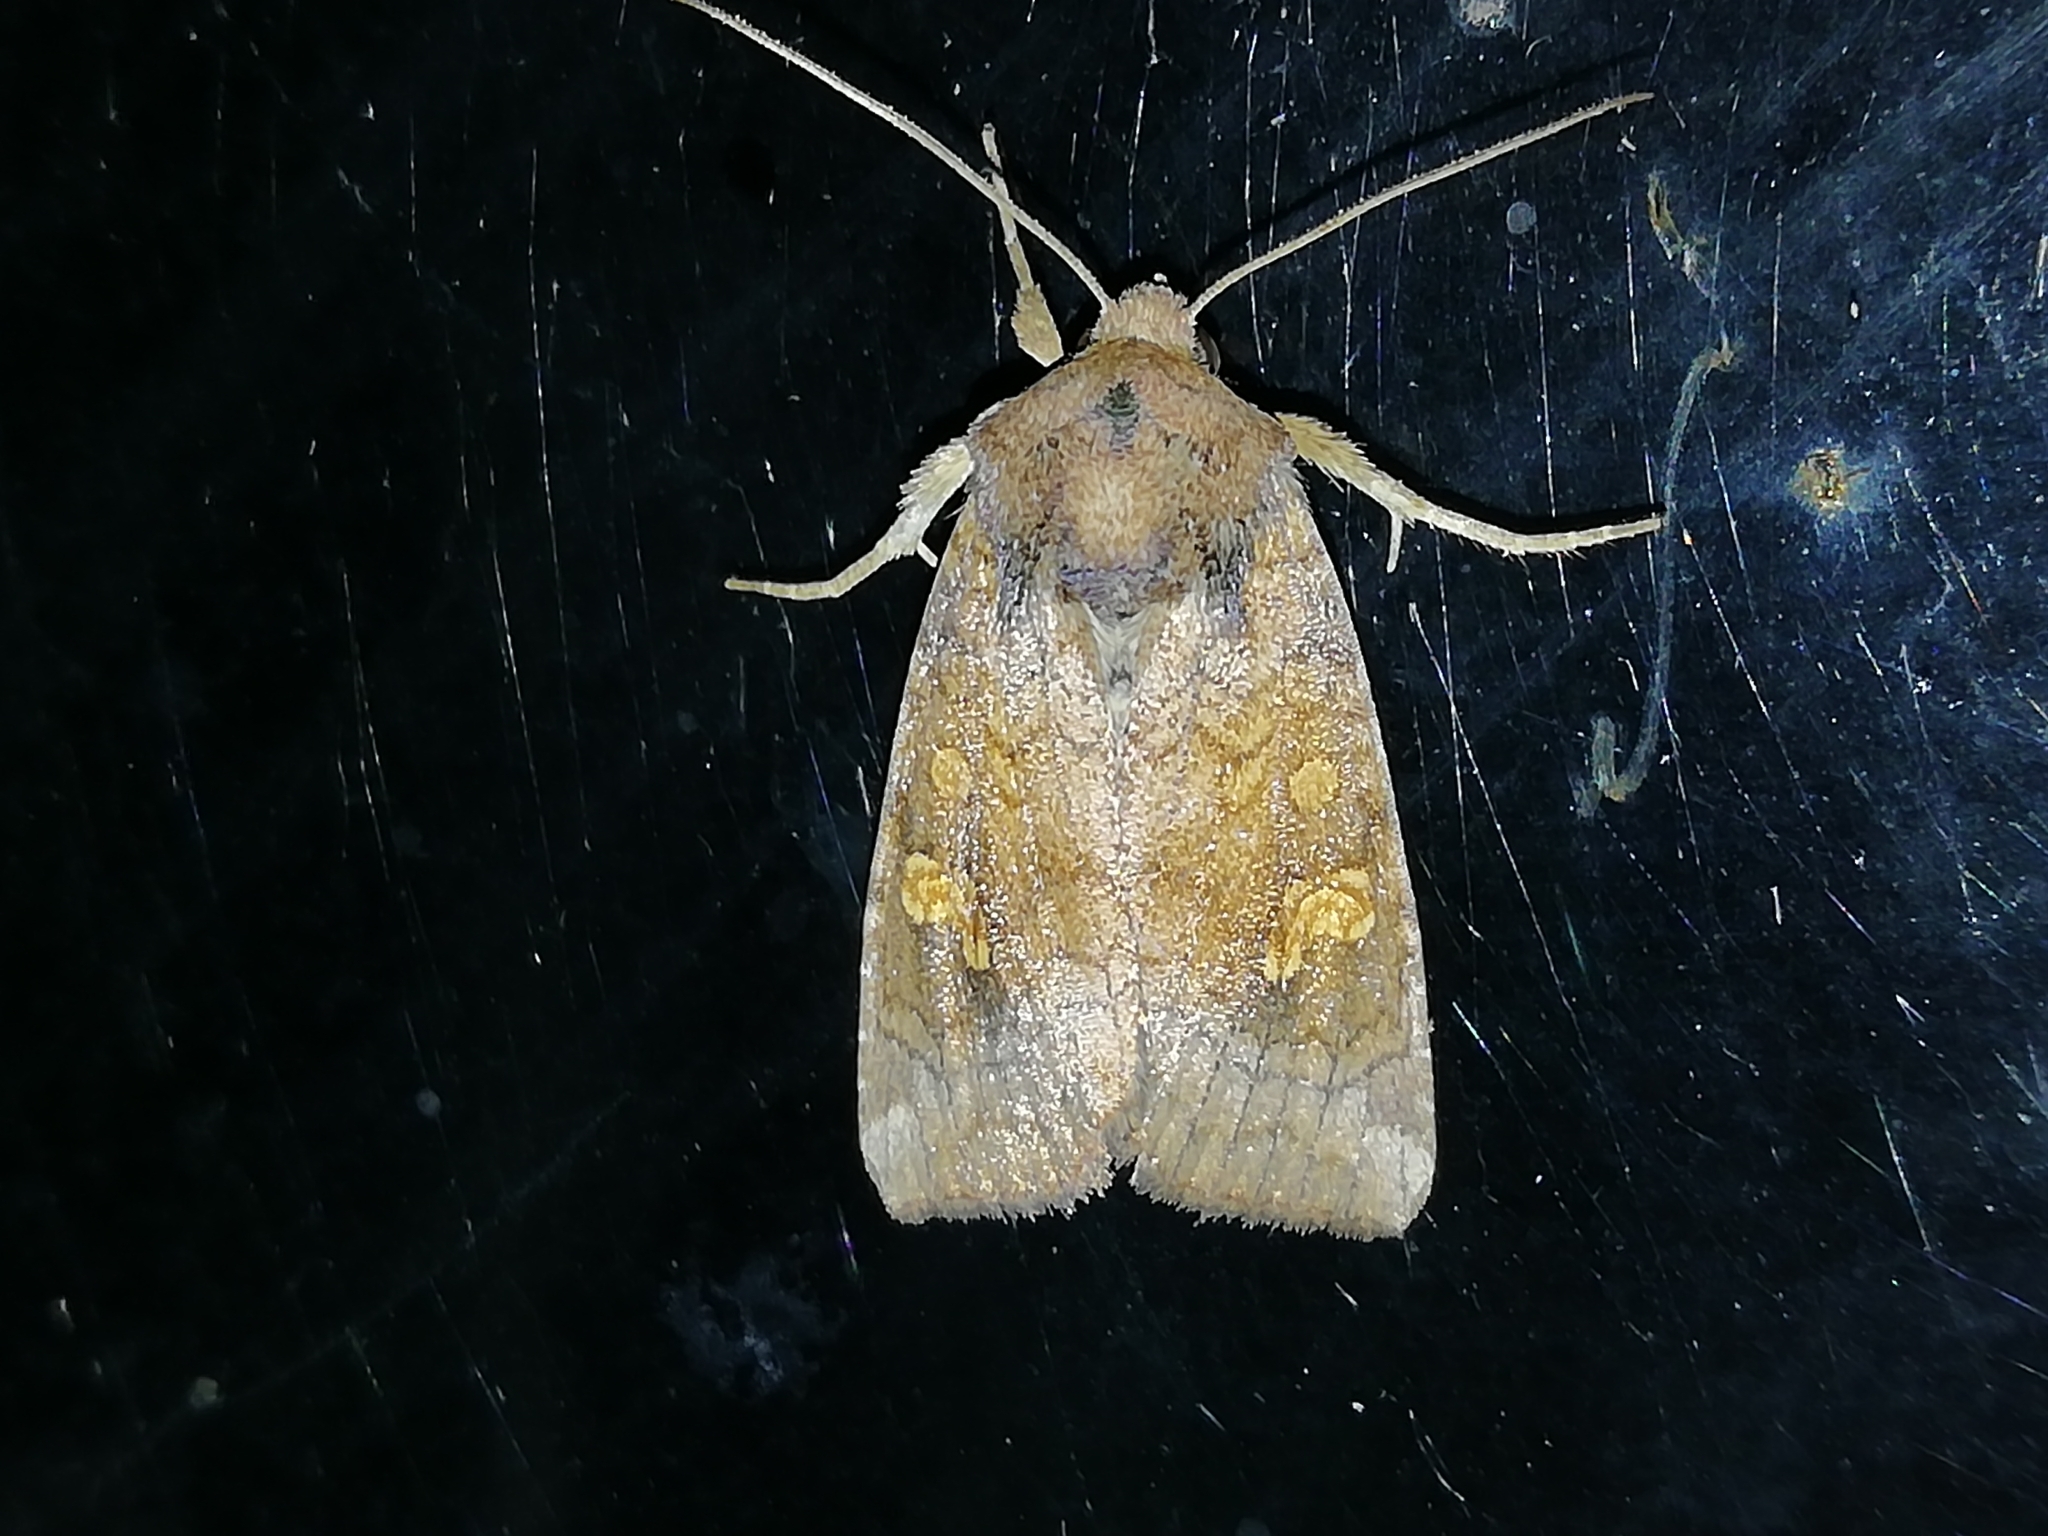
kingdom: Animalia
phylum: Arthropoda
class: Insecta
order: Lepidoptera
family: Noctuidae
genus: Amphipoea
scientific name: Amphipoea fucosa
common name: Saltern ear
